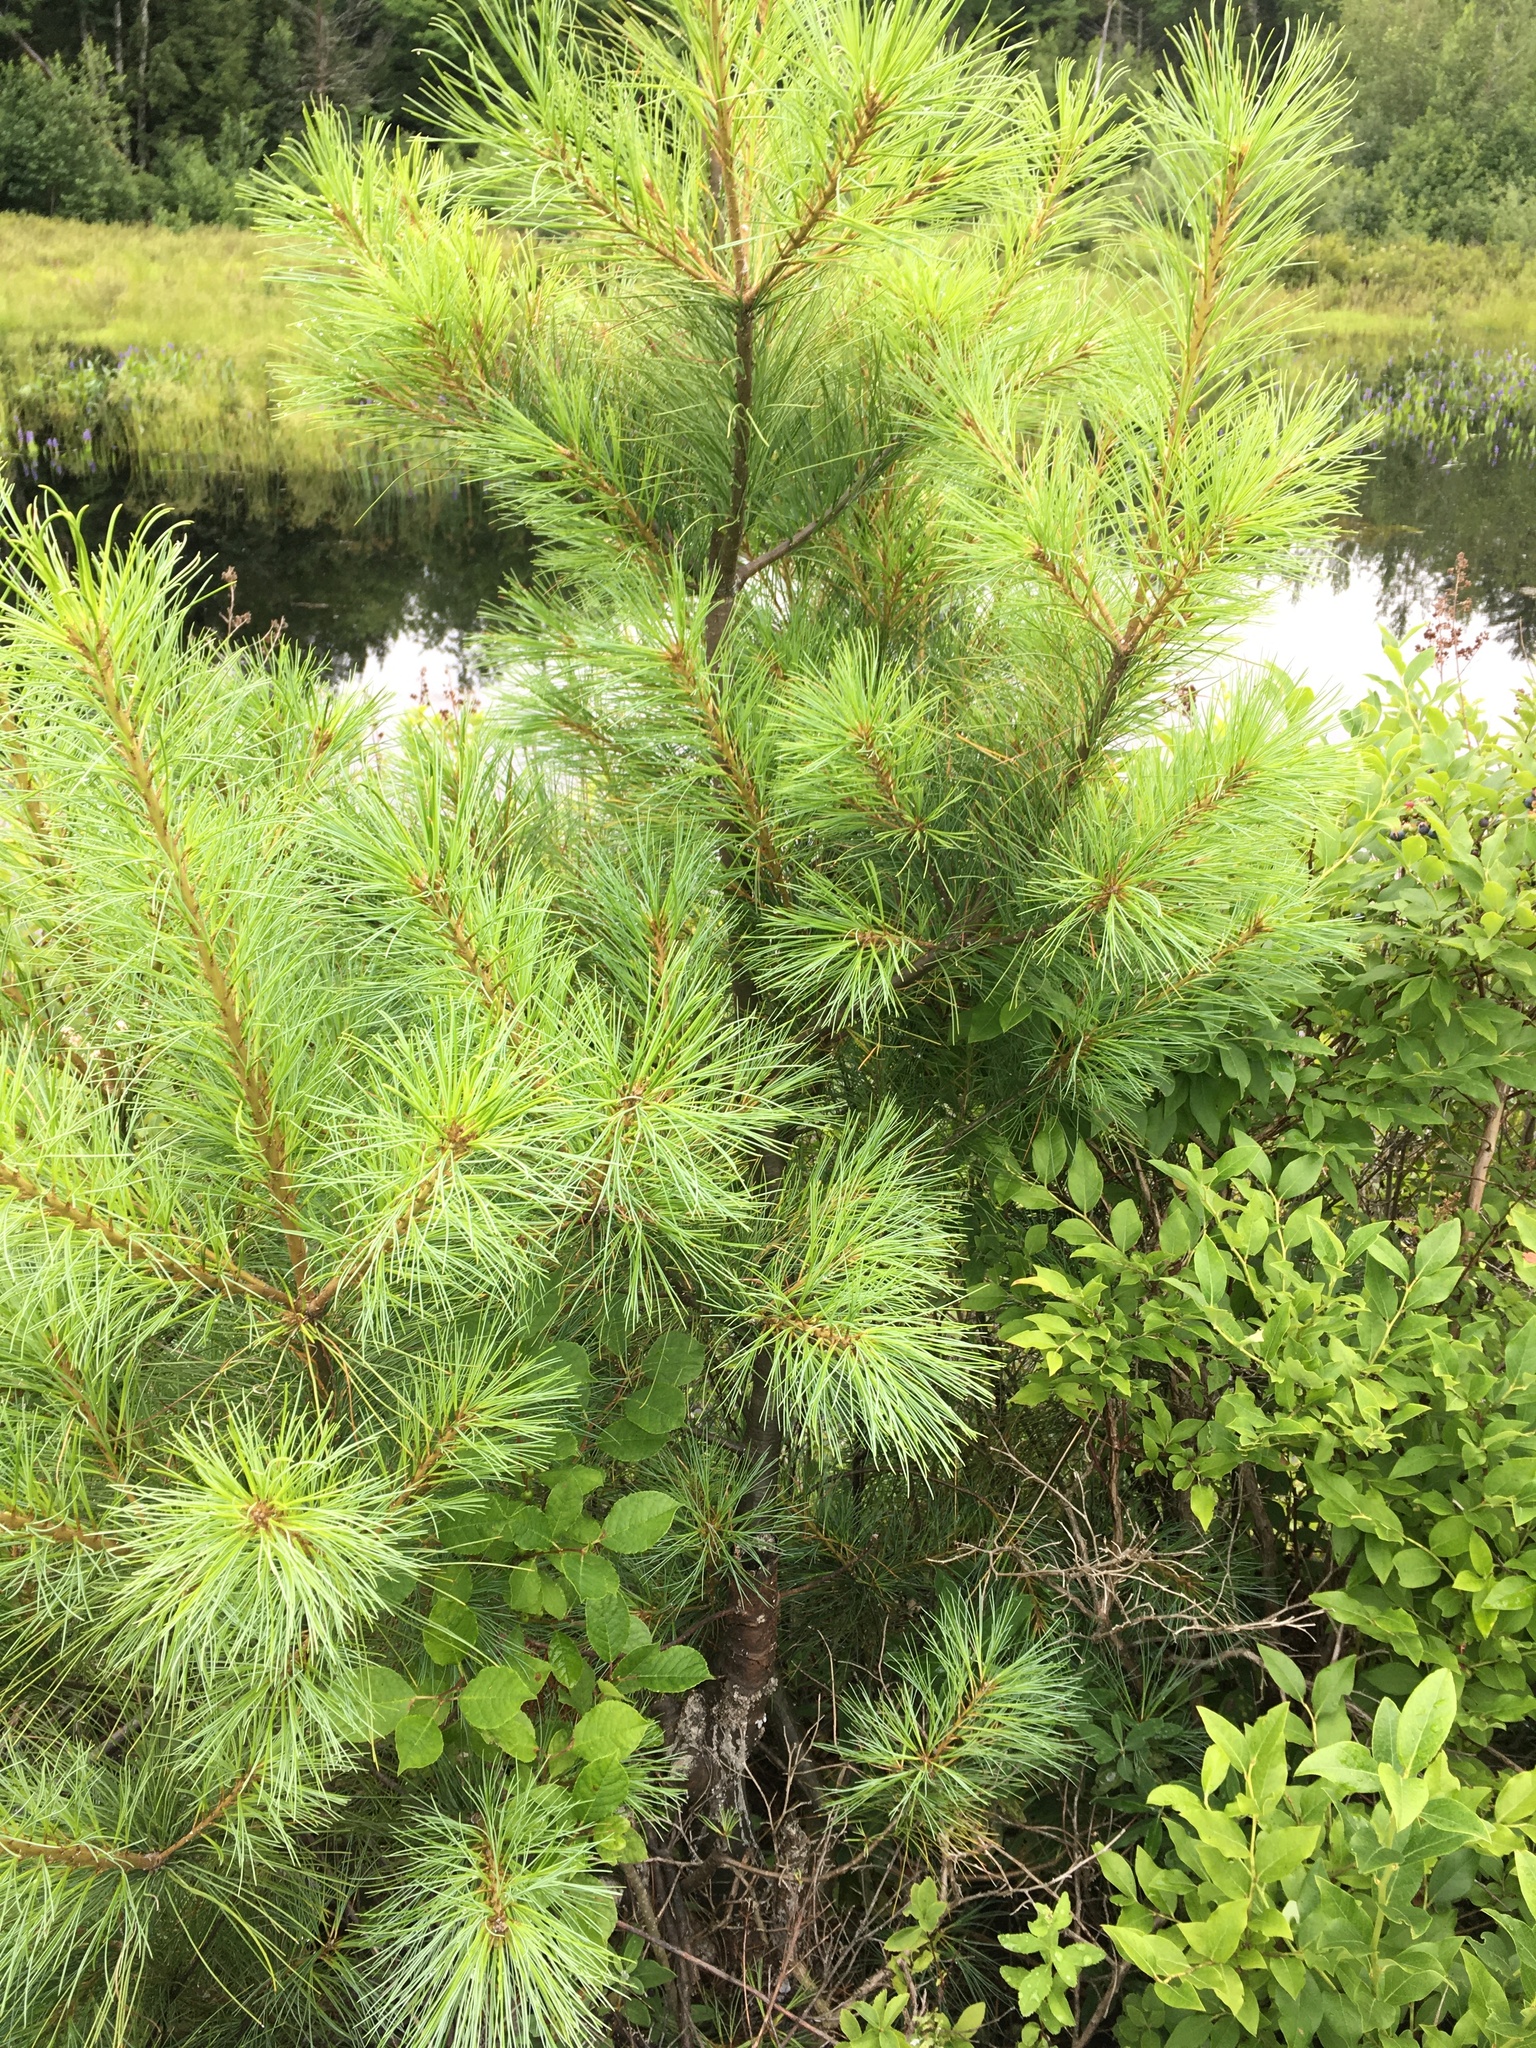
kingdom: Plantae
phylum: Tracheophyta
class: Pinopsida
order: Pinales
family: Pinaceae
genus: Pinus
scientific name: Pinus strobus
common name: Weymouth pine
